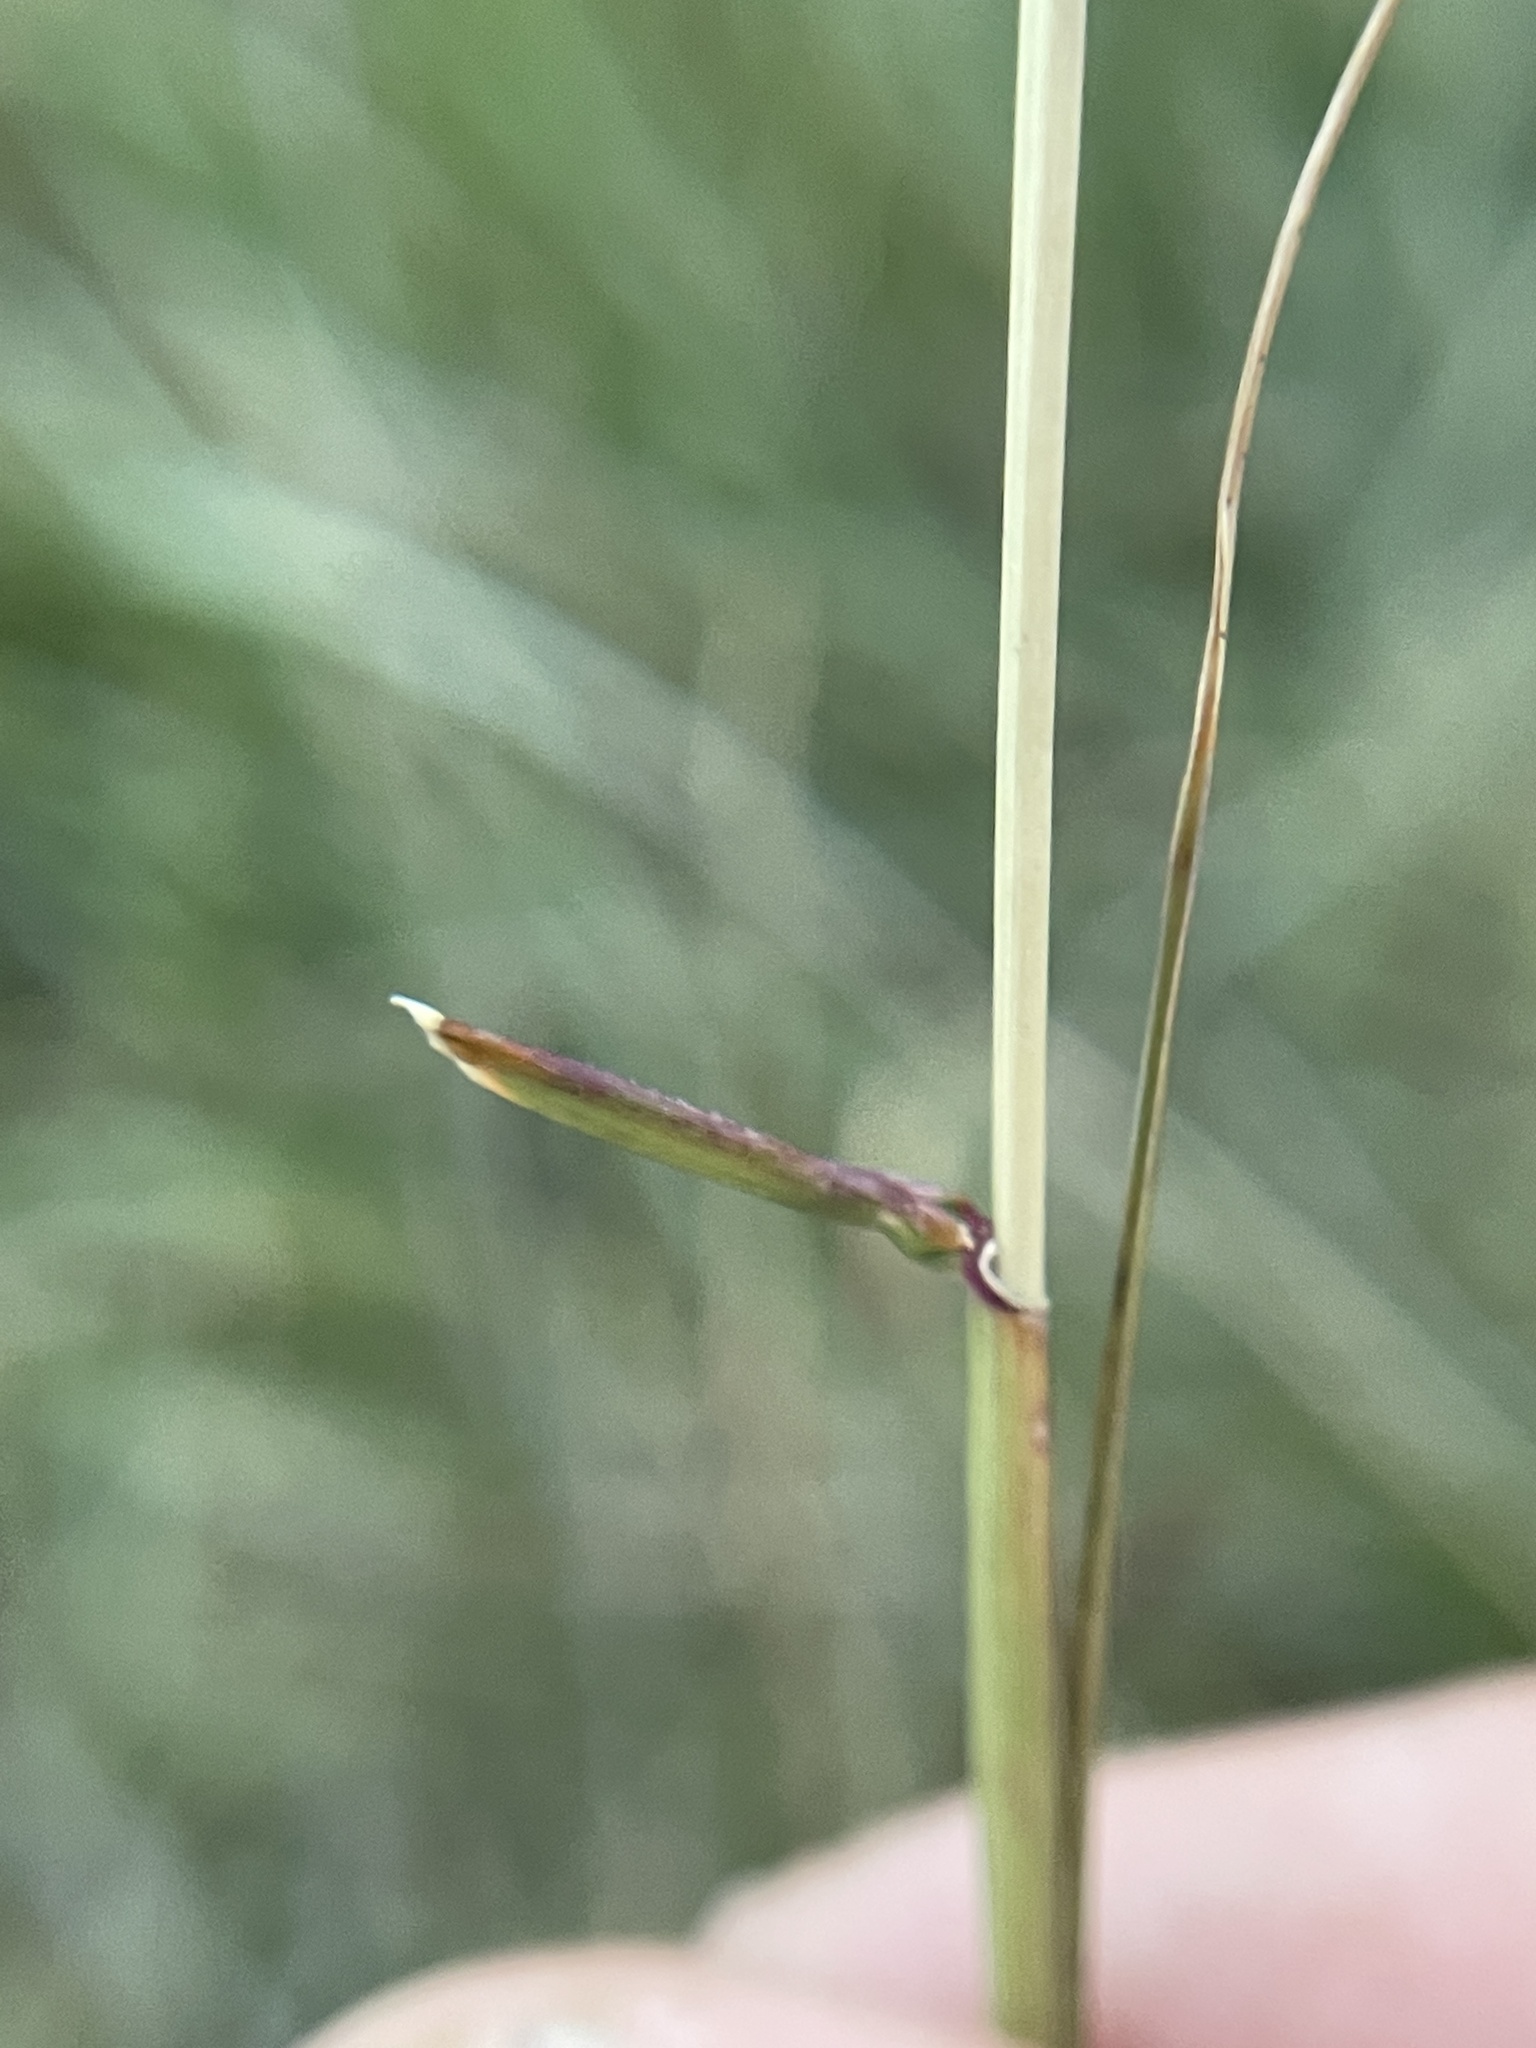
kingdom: Plantae
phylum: Tracheophyta
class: Liliopsida
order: Poales
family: Poaceae
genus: Tridens
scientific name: Tridens albescens
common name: White tridens
